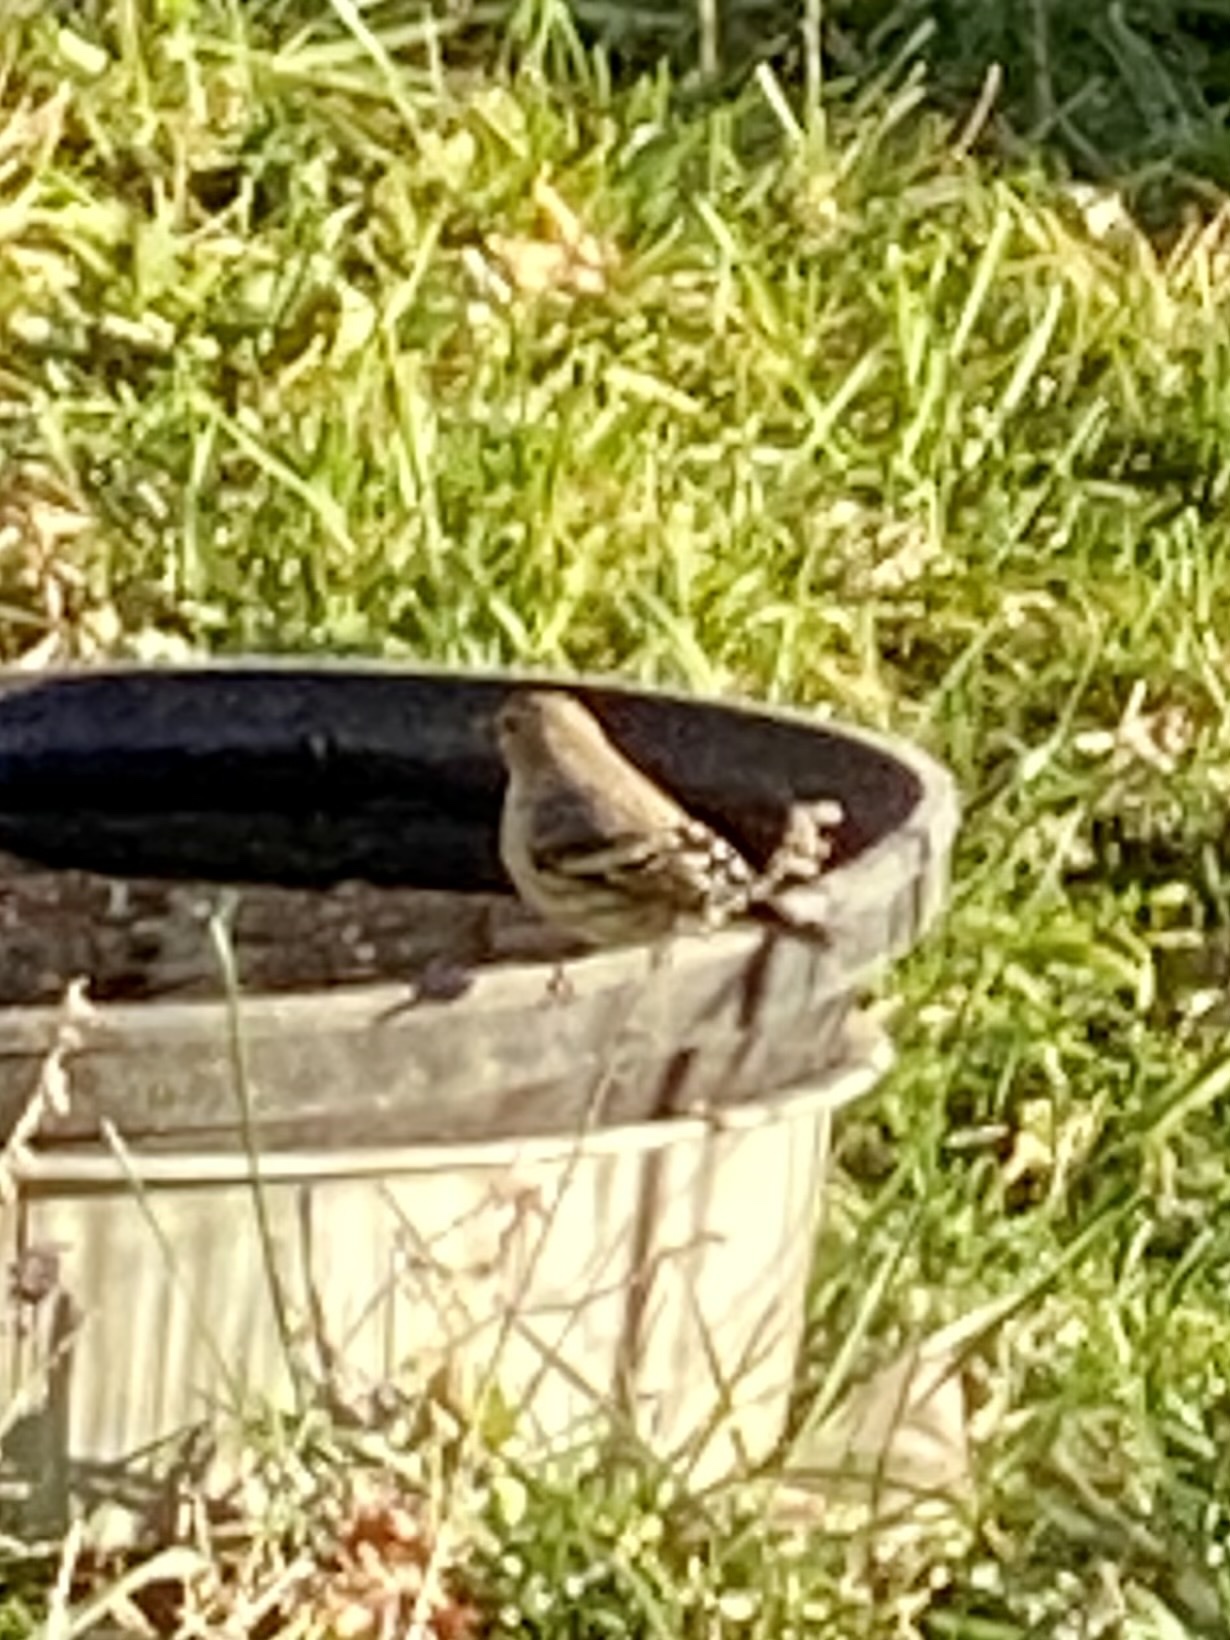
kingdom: Animalia
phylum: Chordata
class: Aves
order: Passeriformes
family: Fringillidae
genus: Spinus
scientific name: Spinus pinus
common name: Pine siskin
